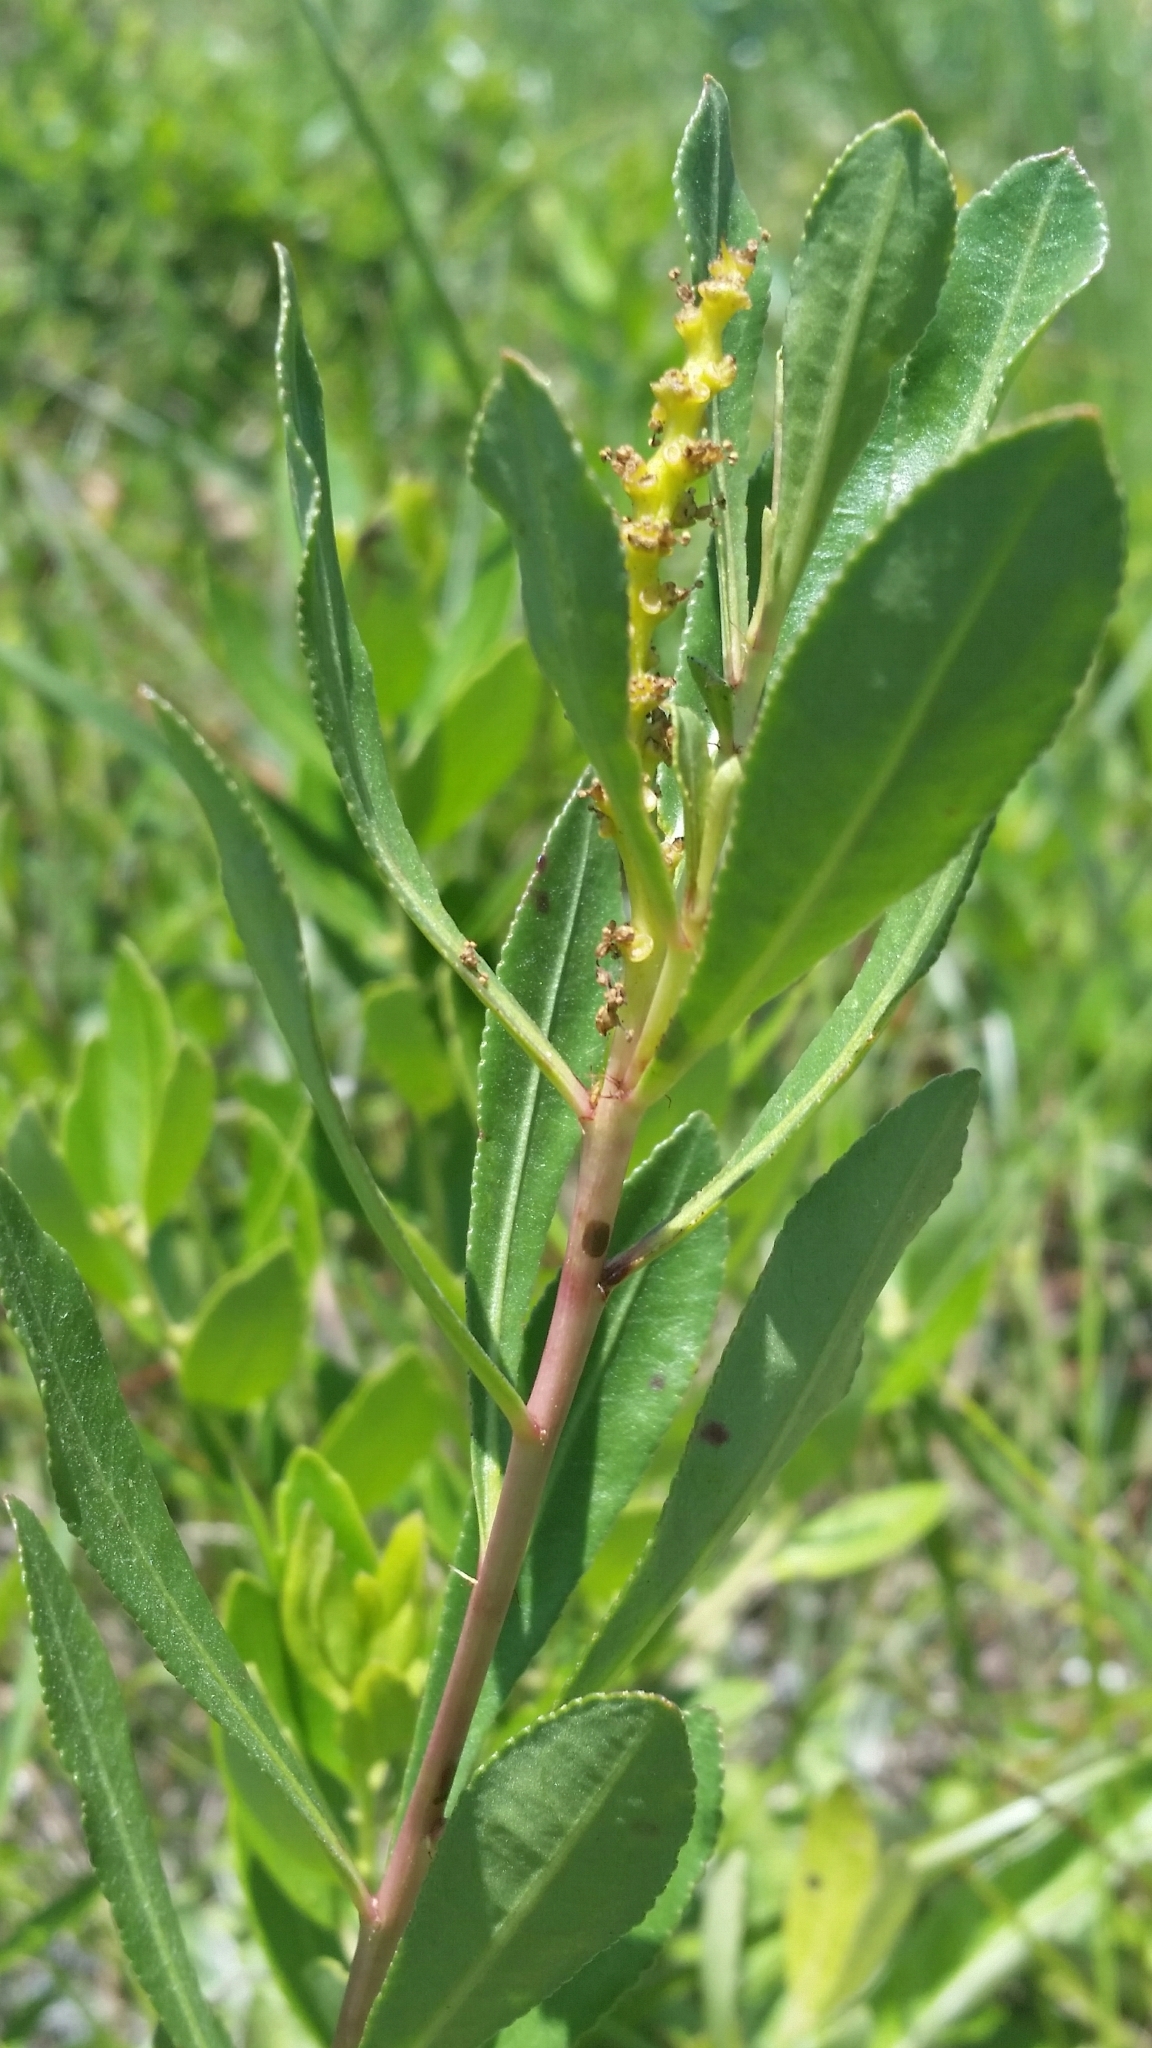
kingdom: Plantae
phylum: Tracheophyta
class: Magnoliopsida
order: Malpighiales
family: Euphorbiaceae
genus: Stillingia
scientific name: Stillingia sylvatica
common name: Queen's-delight
